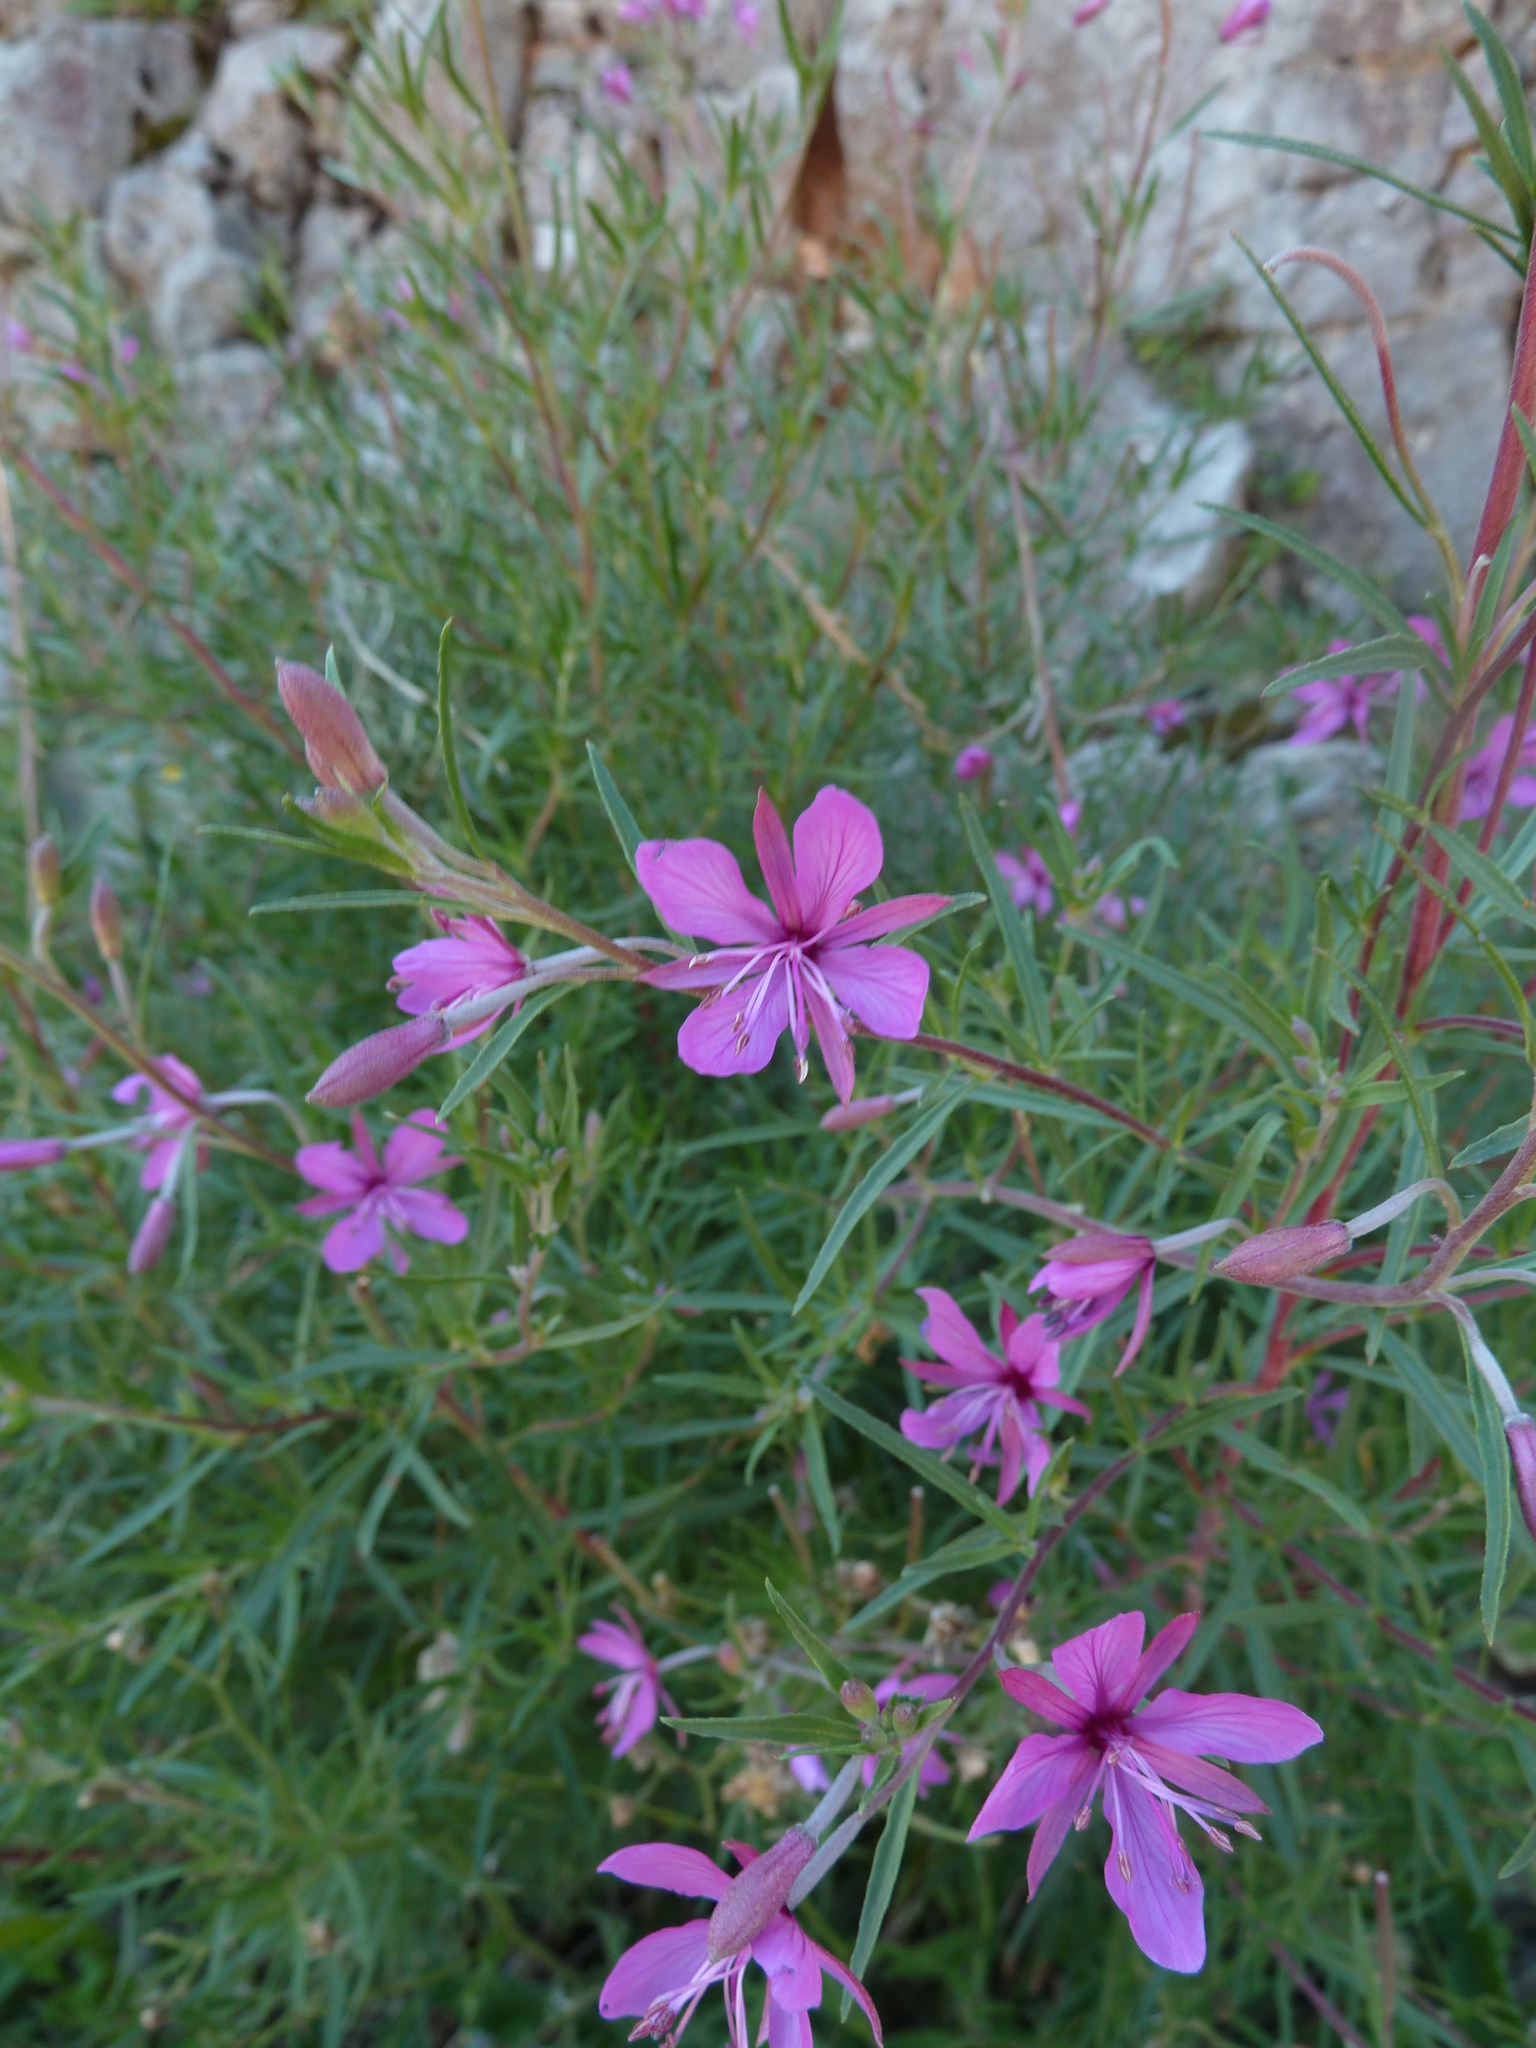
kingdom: Plantae
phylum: Tracheophyta
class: Magnoliopsida
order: Myrtales
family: Onagraceae
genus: Chamaenerion
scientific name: Chamaenerion dodonaei
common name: Rosemary-leaved willowherb
